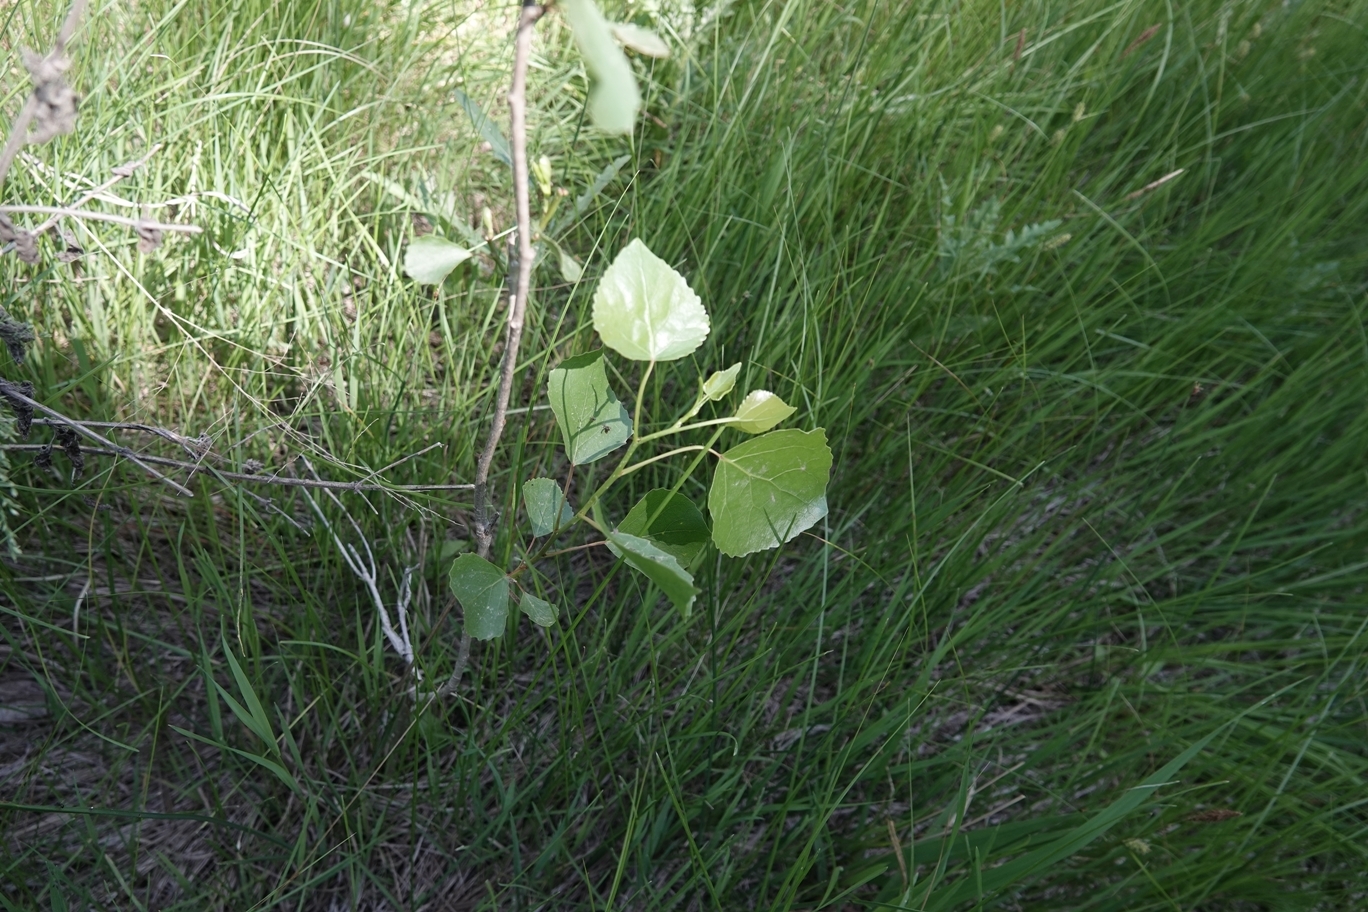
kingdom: Plantae
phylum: Tracheophyta
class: Magnoliopsida
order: Malpighiales
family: Salicaceae
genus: Populus
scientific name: Populus deltoides
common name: Eastern cottonwood
